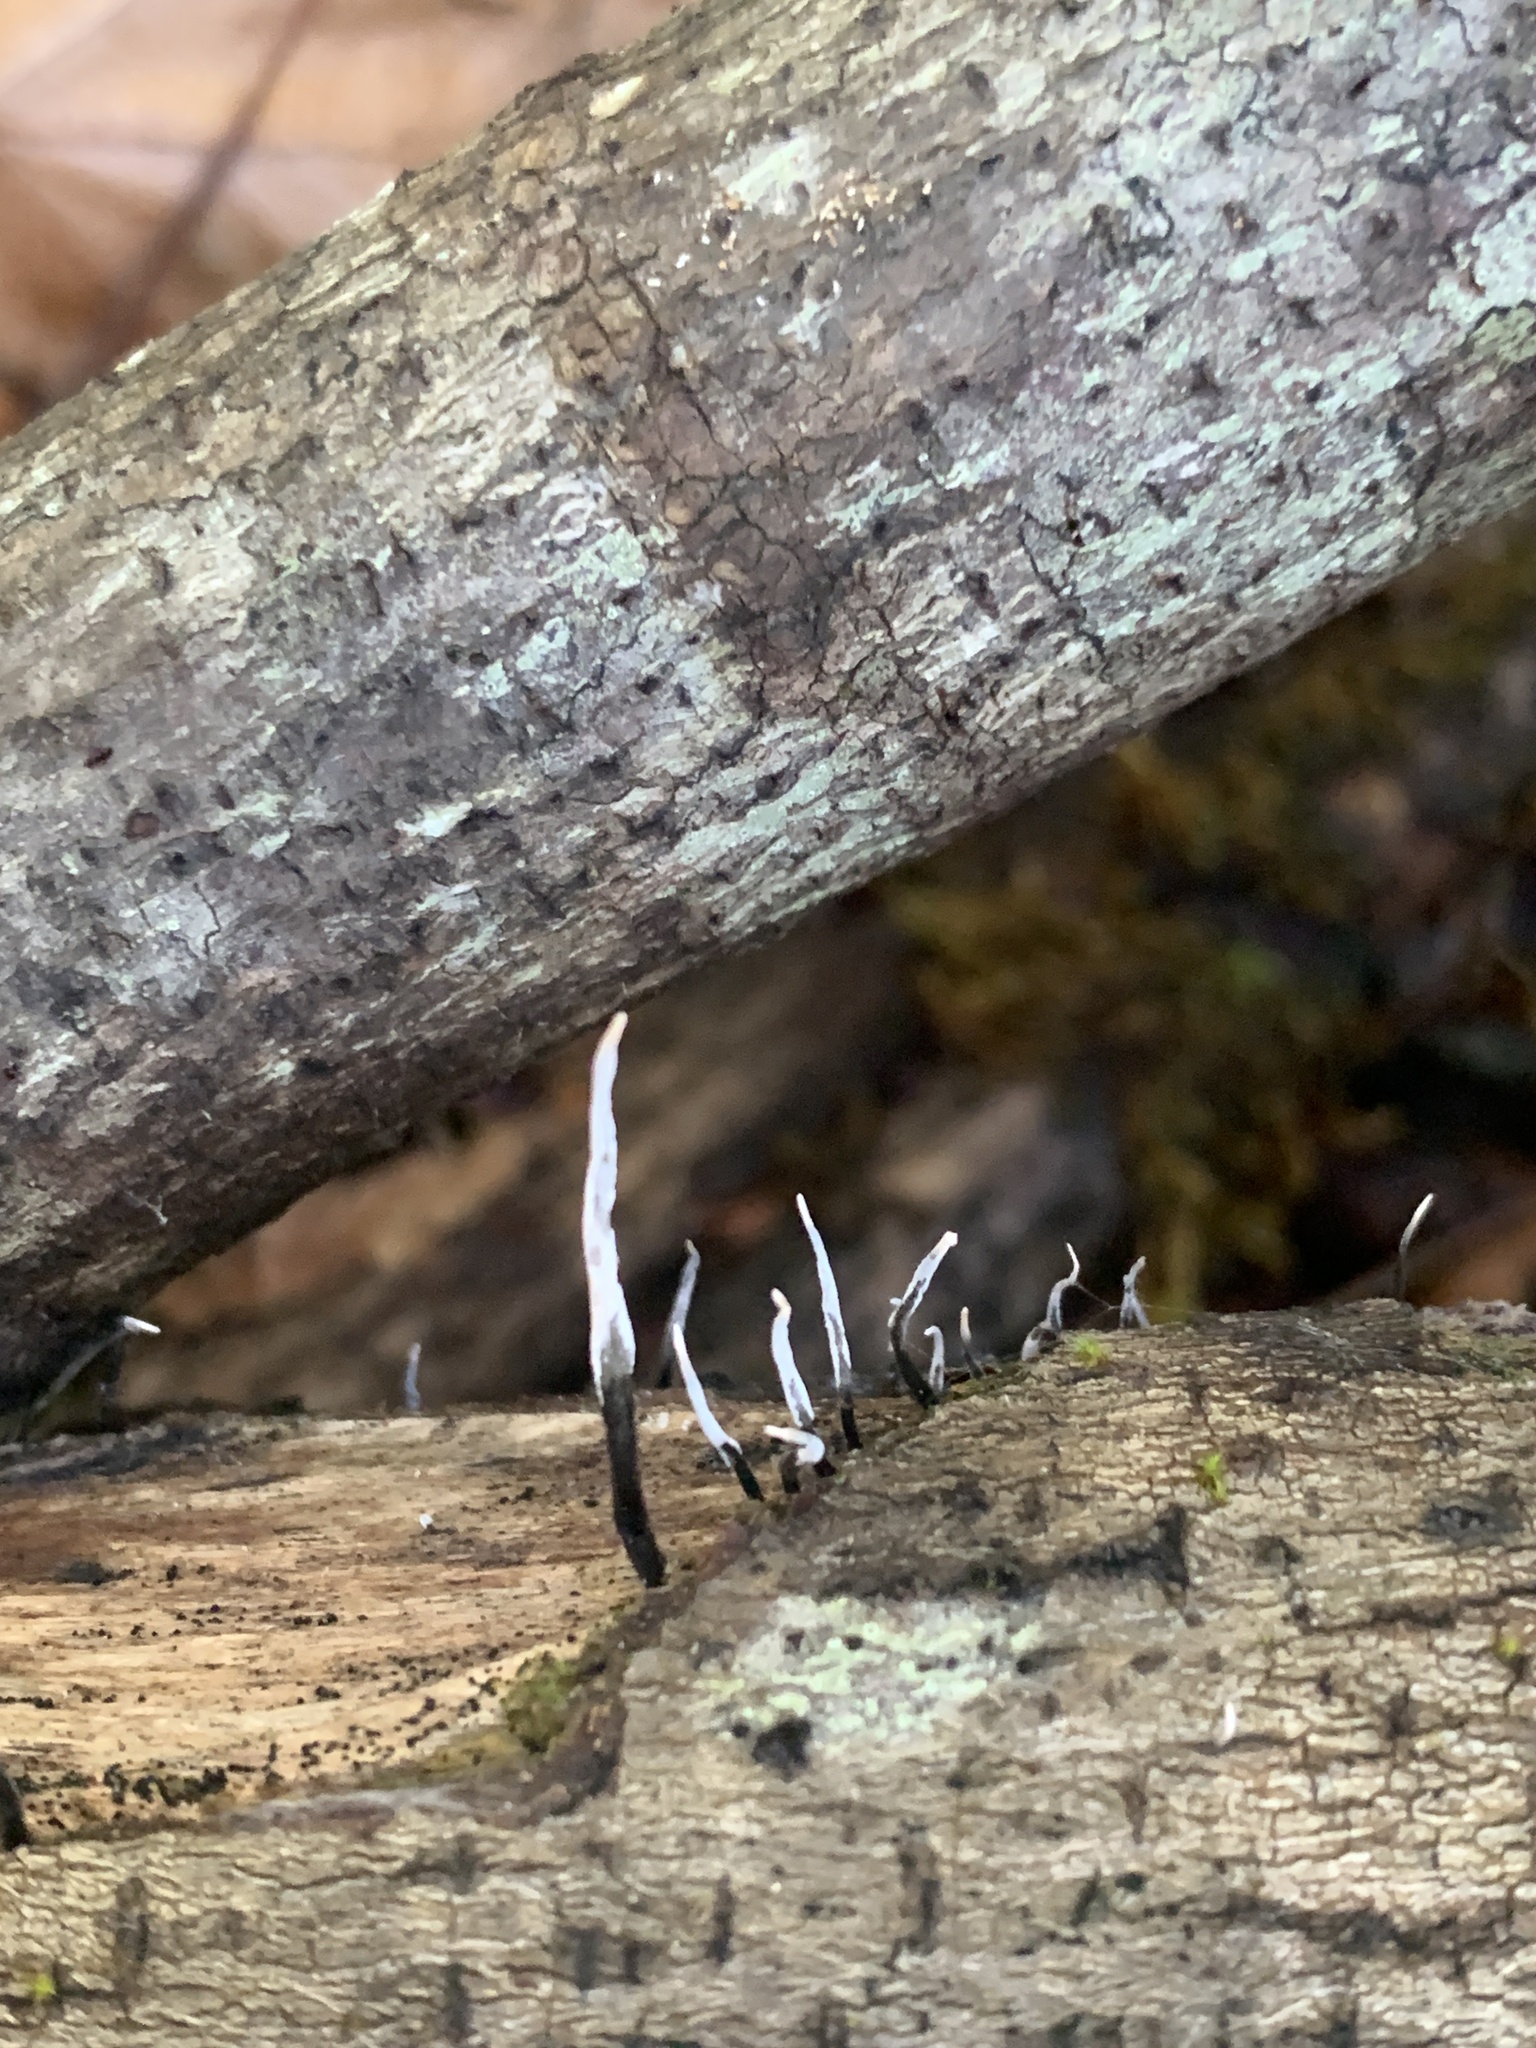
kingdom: Fungi
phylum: Ascomycota
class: Sordariomycetes
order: Xylariales
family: Xylariaceae
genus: Xylaria
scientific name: Xylaria hypoxylon
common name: Candle-snuff fungus
